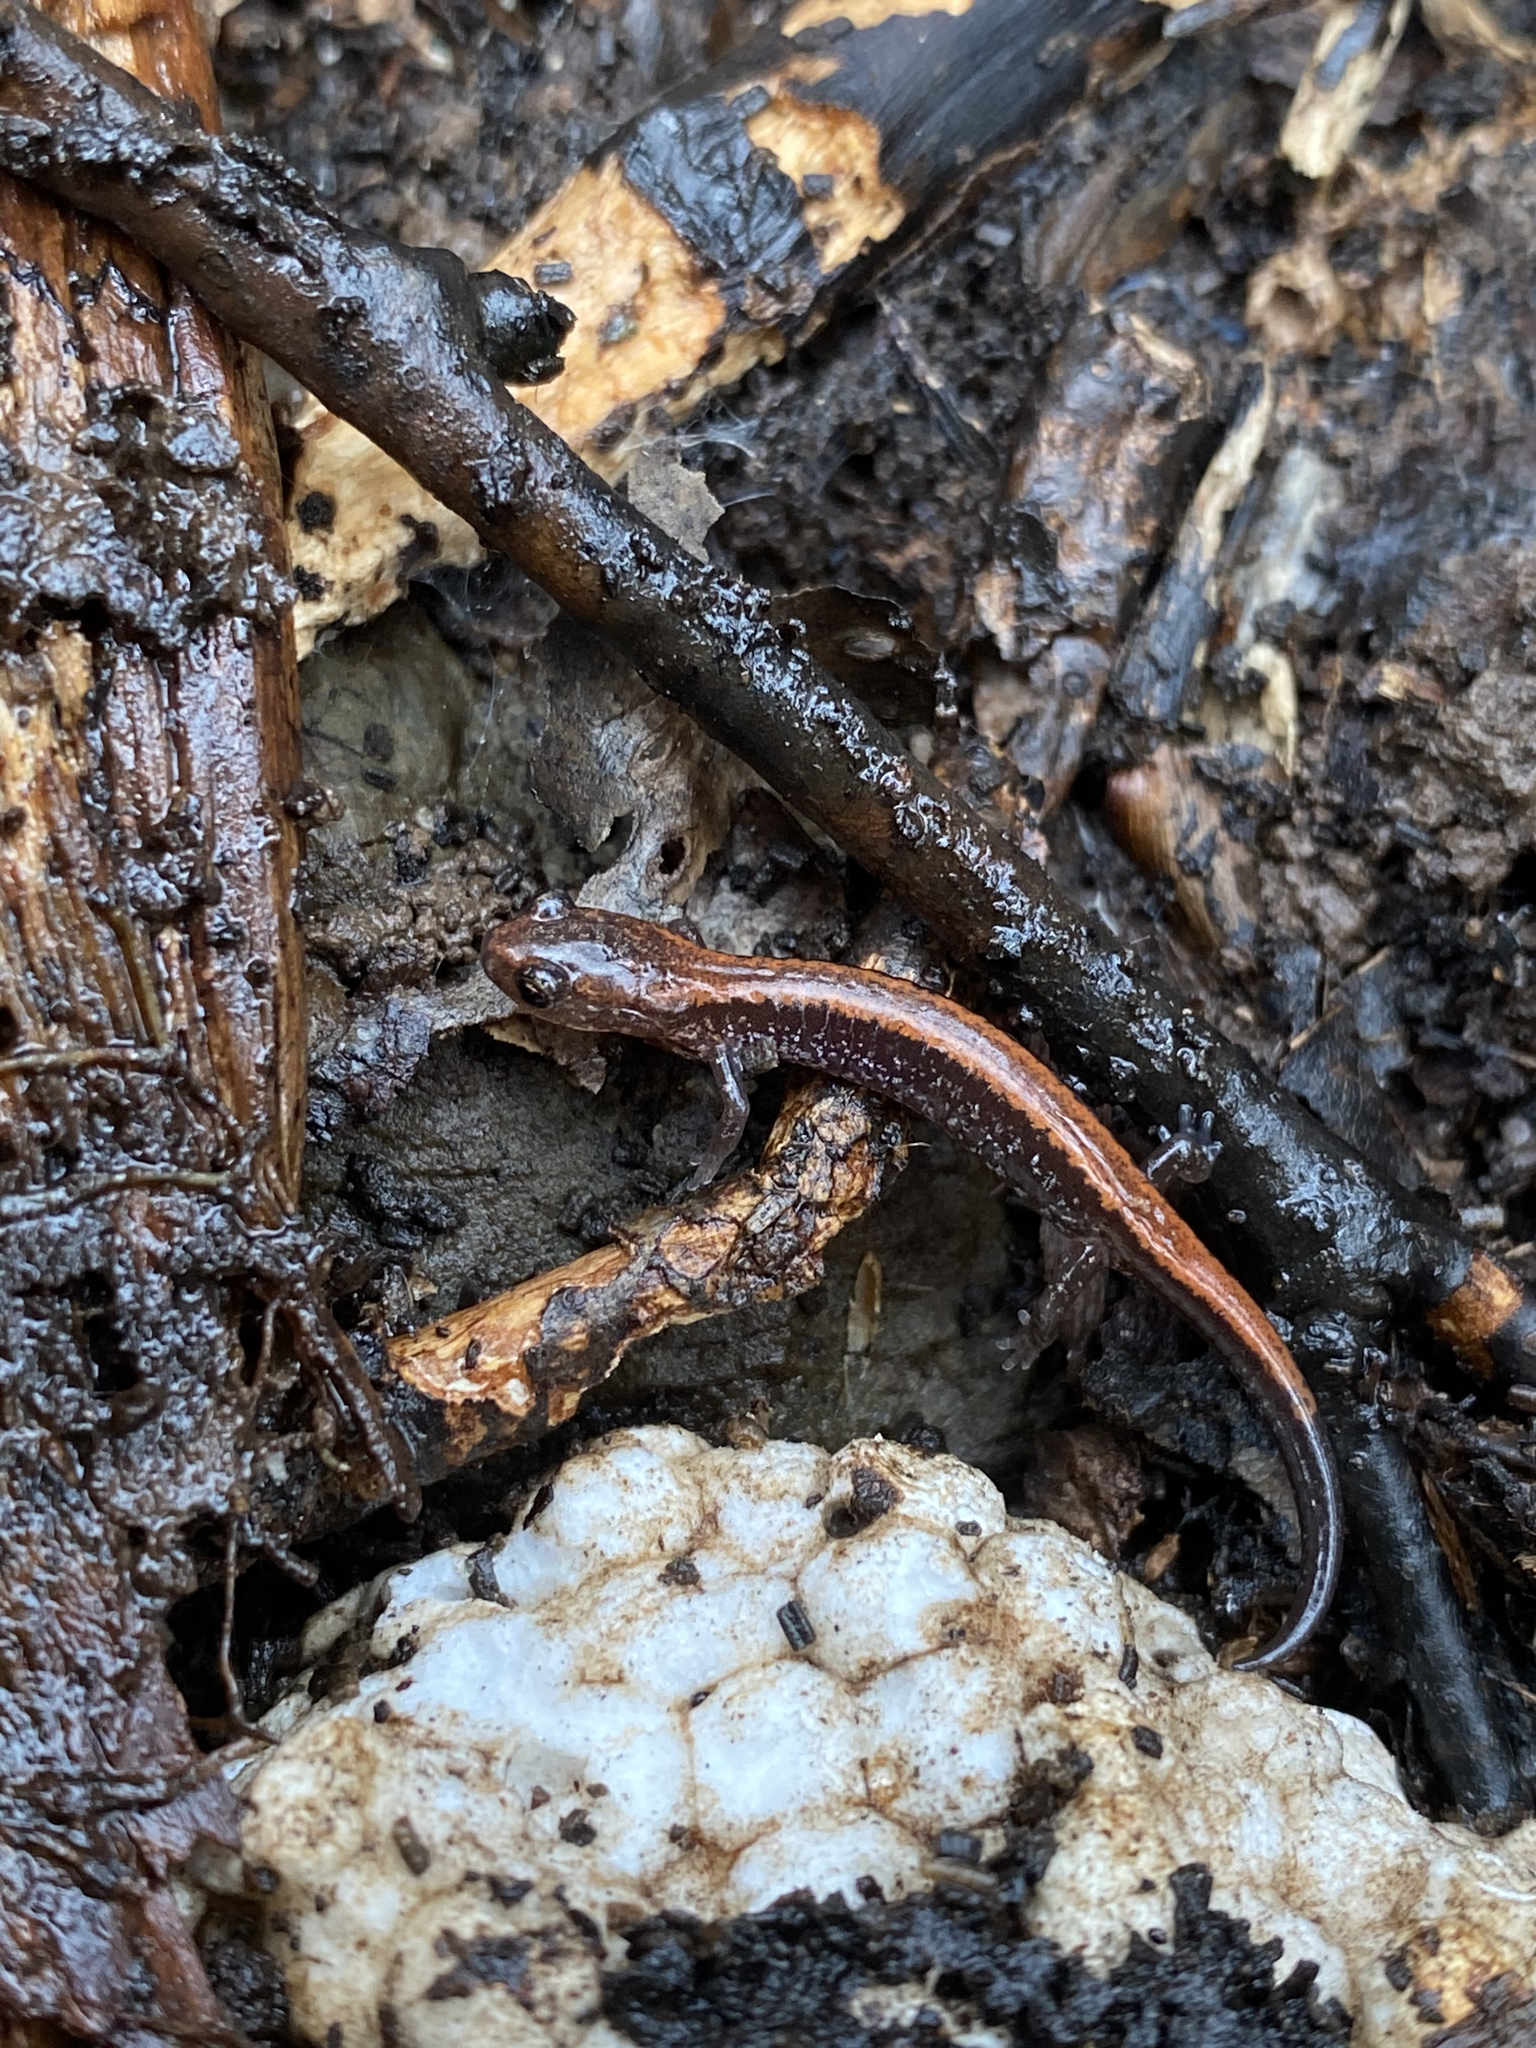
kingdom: Animalia
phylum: Chordata
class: Amphibia
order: Caudata
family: Plethodontidae
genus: Plethodon
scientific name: Plethodon cinereus
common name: Redback salamander
